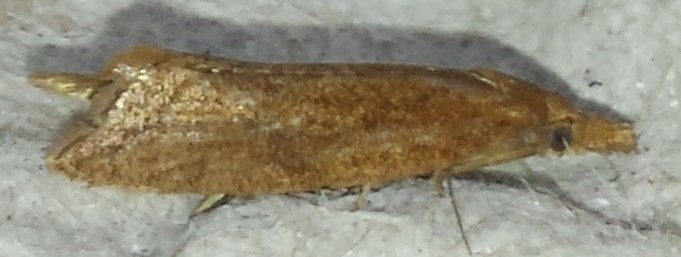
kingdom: Animalia
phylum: Arthropoda
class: Insecta
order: Lepidoptera
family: Tortricidae
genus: Aethes
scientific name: Aethes biscana
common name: Reddish aethes
